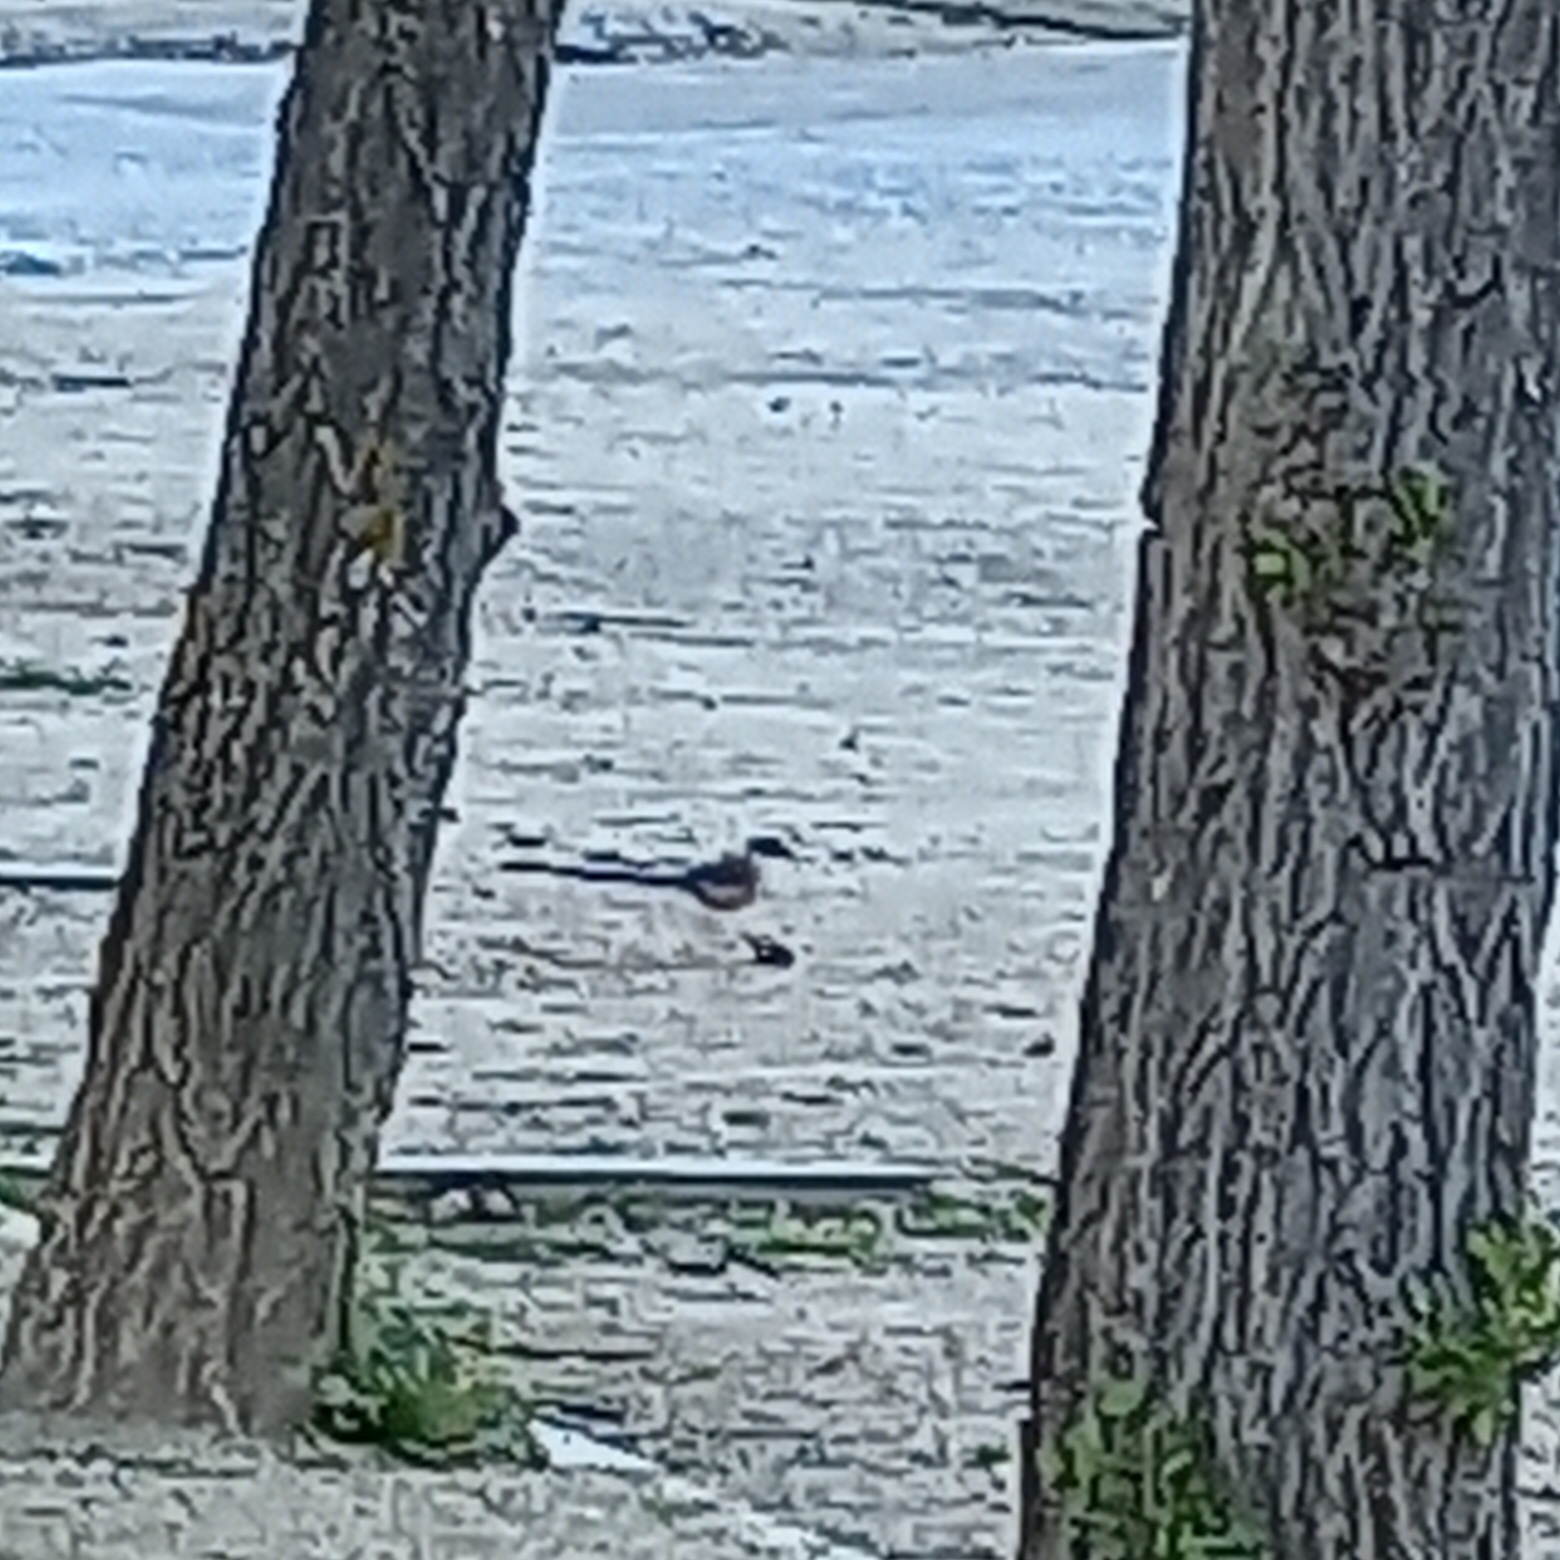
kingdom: Animalia
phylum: Chordata
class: Aves
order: Passeriformes
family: Corvidae
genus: Cyanopica
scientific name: Cyanopica cooki
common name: Iberian magpie
